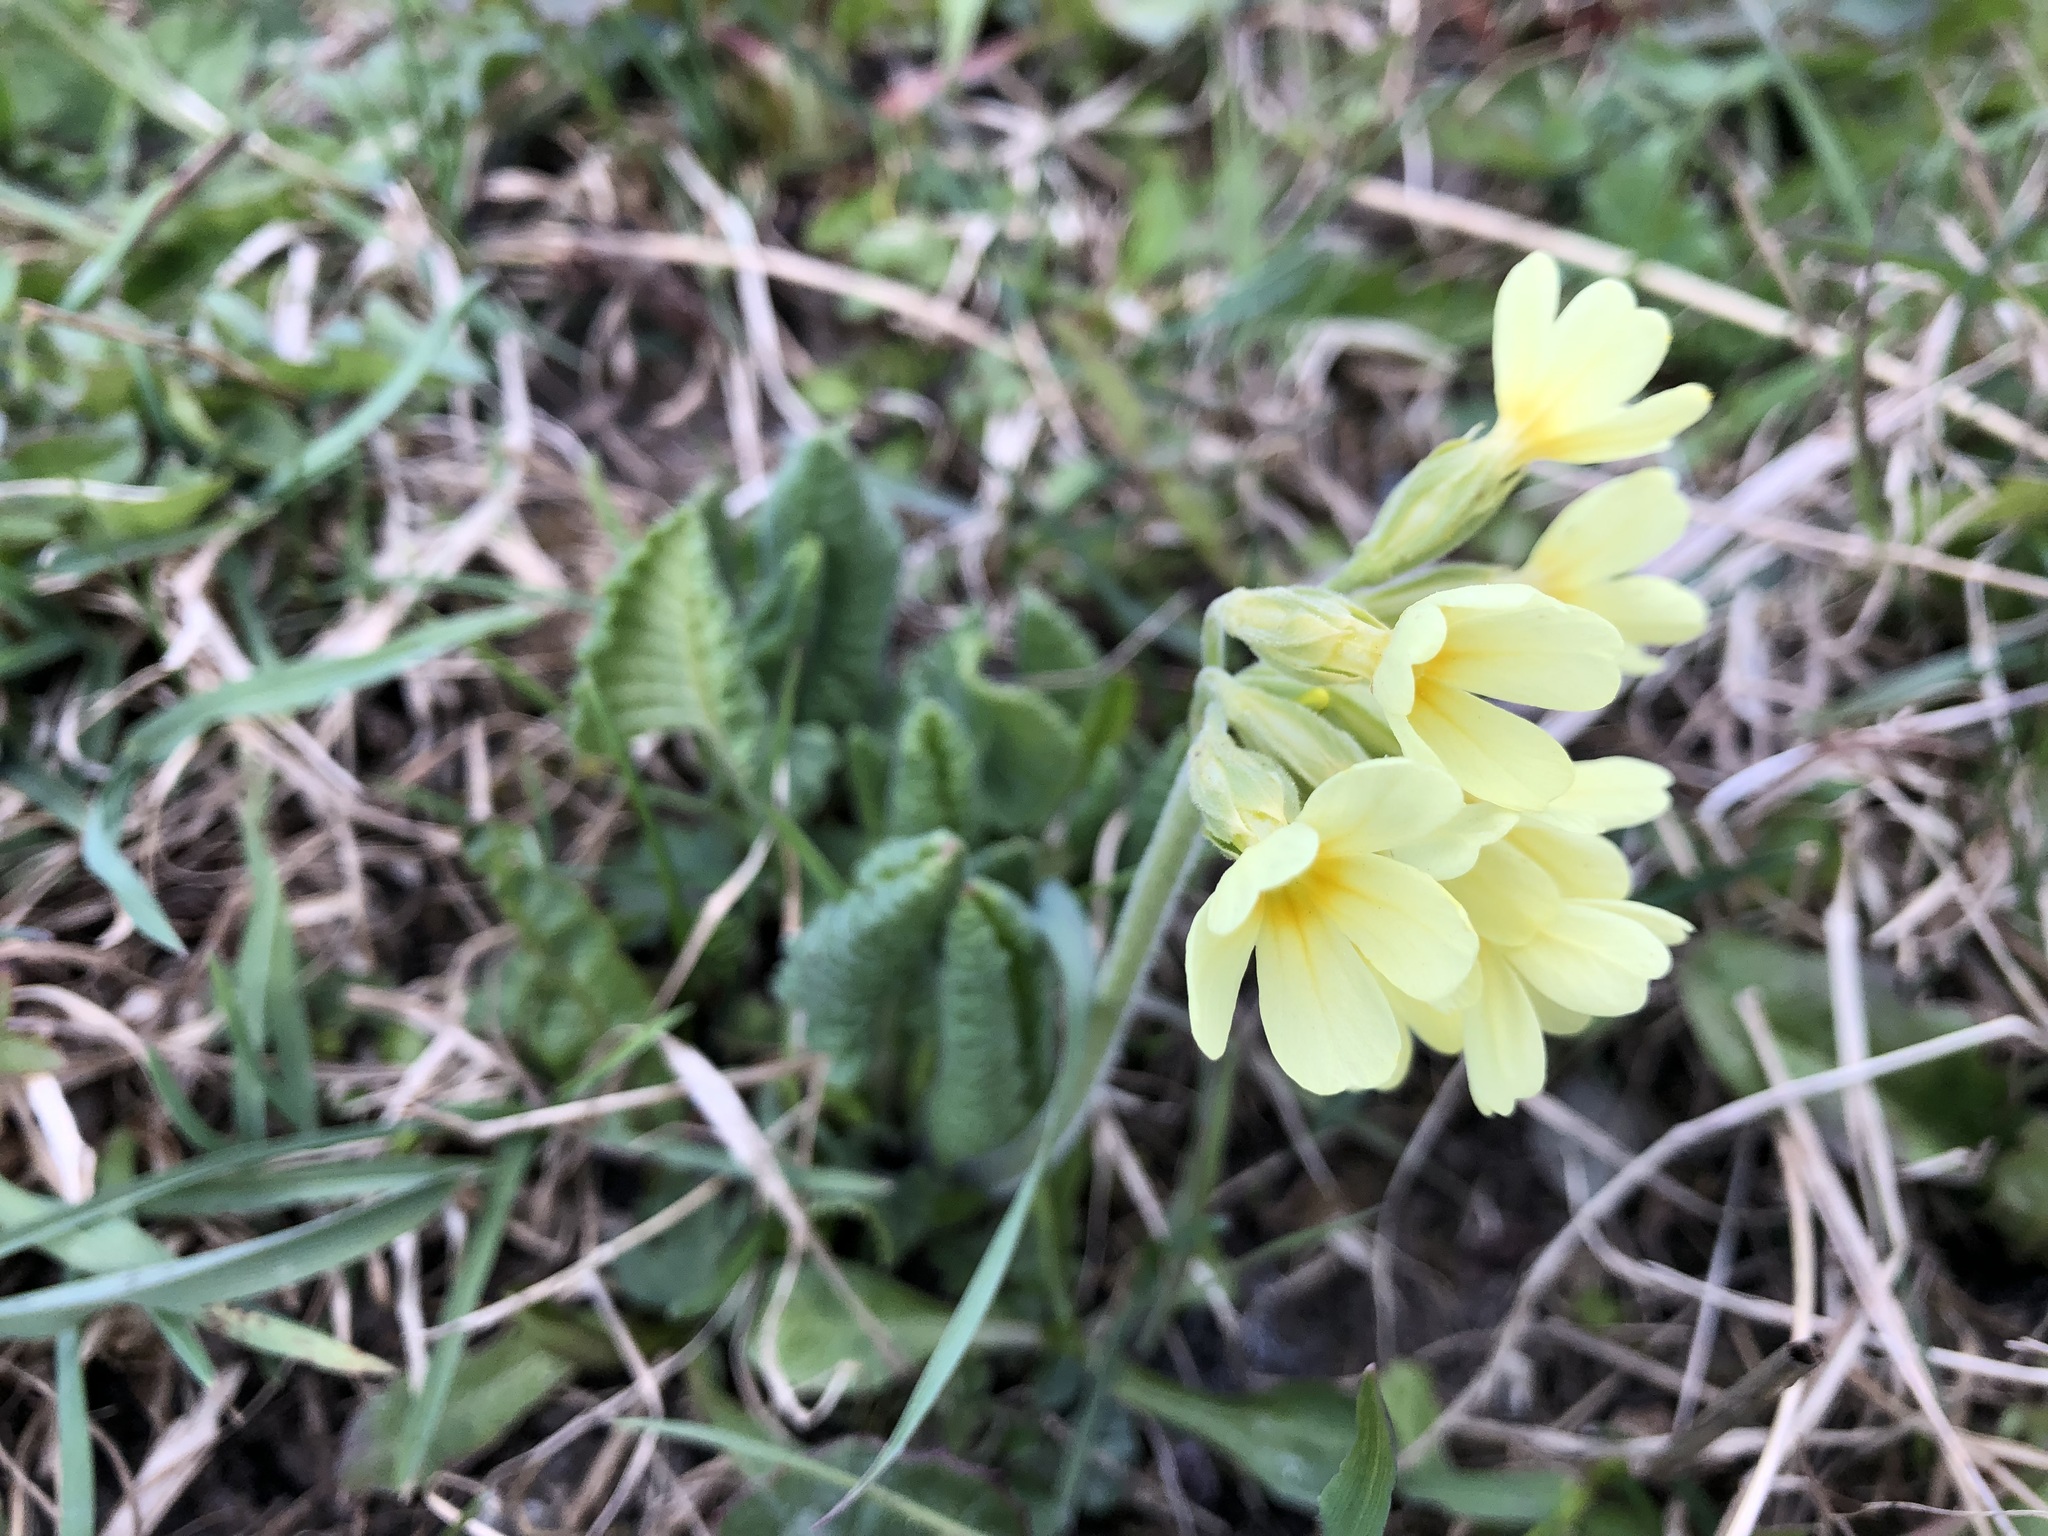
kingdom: Plantae
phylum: Tracheophyta
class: Magnoliopsida
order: Ericales
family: Primulaceae
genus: Primula
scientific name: Primula elatior
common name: Oxlip
